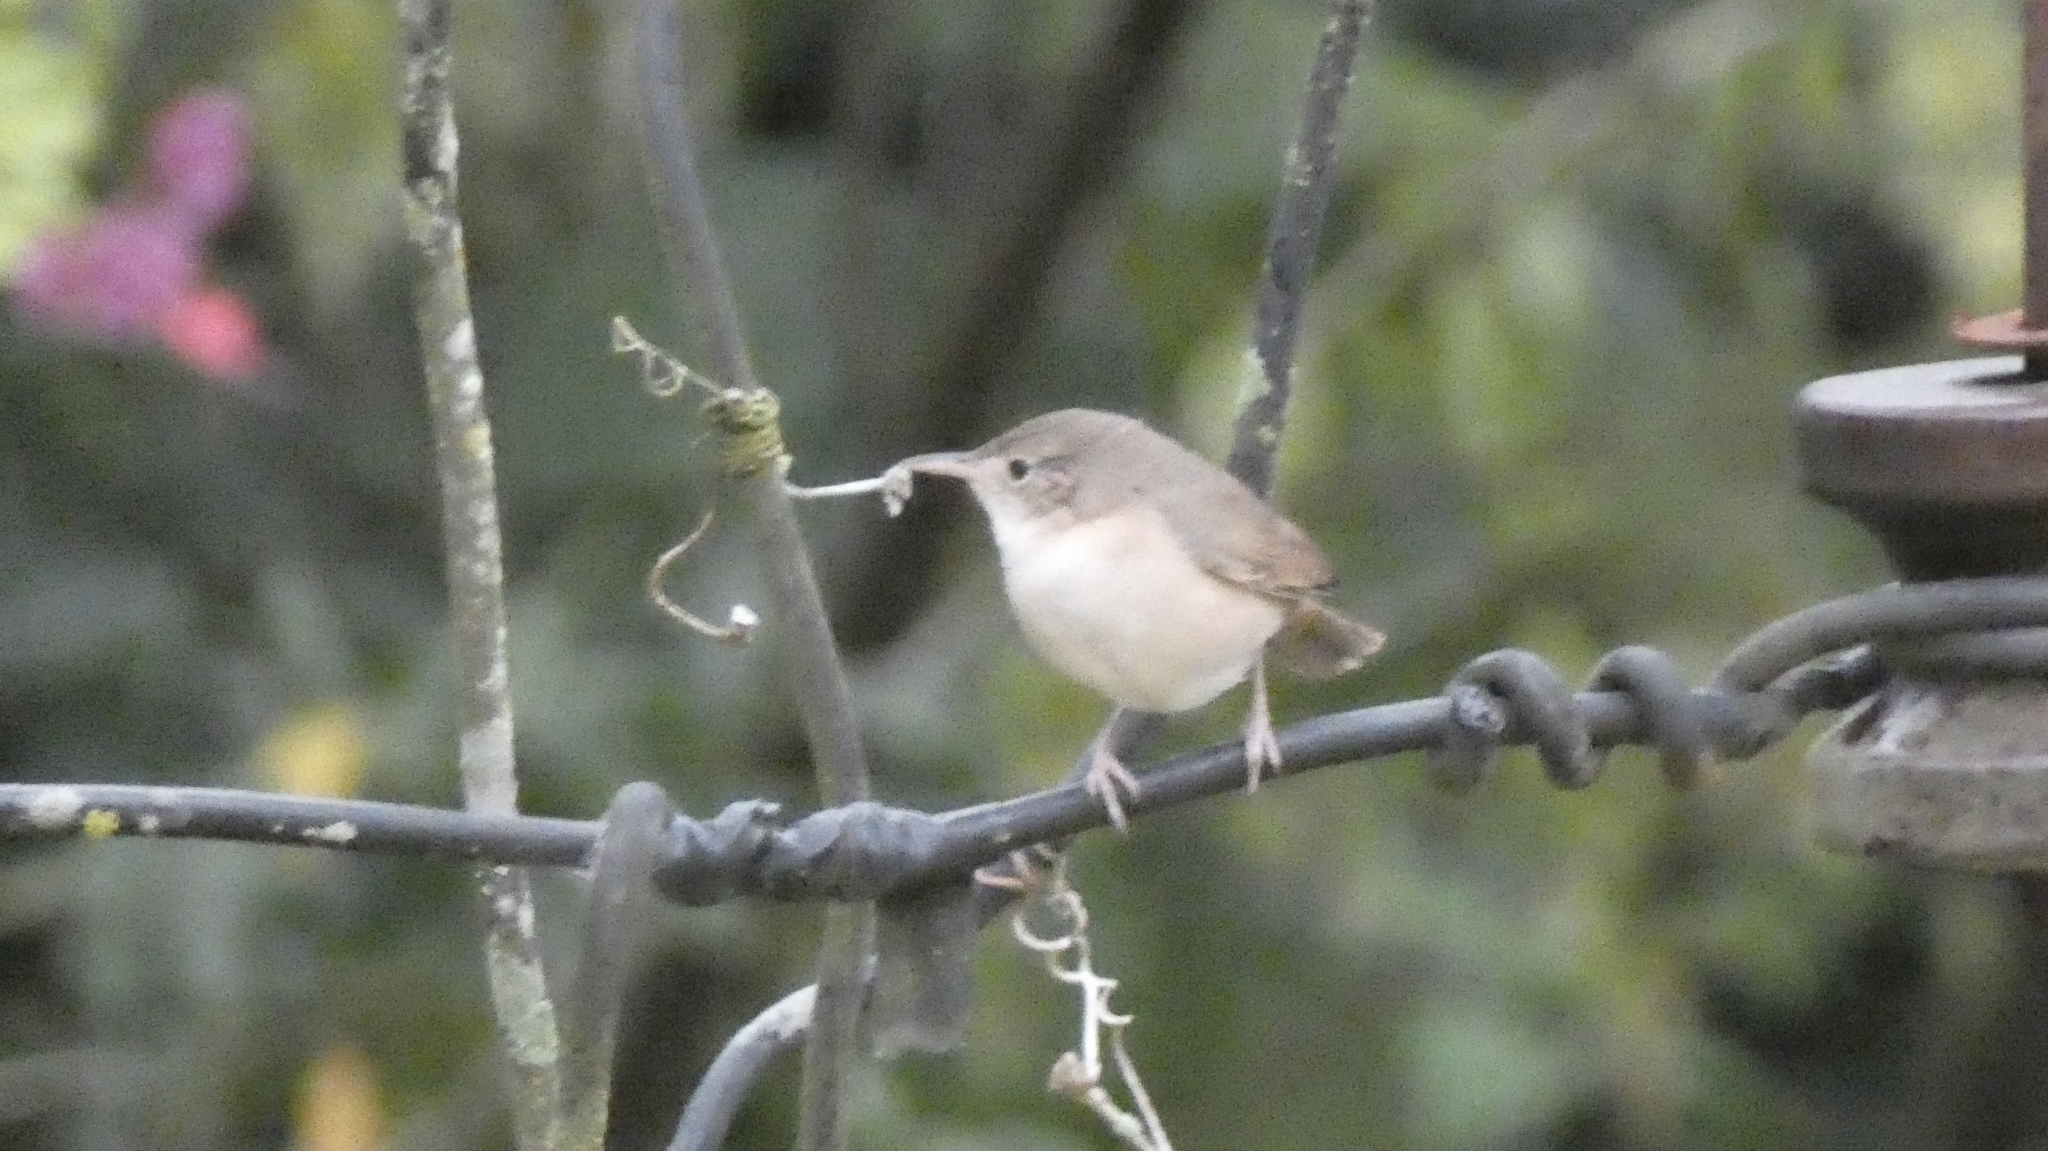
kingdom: Animalia
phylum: Chordata
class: Aves
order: Passeriformes
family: Troglodytidae
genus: Troglodytes
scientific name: Troglodytes aedon
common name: House wren
